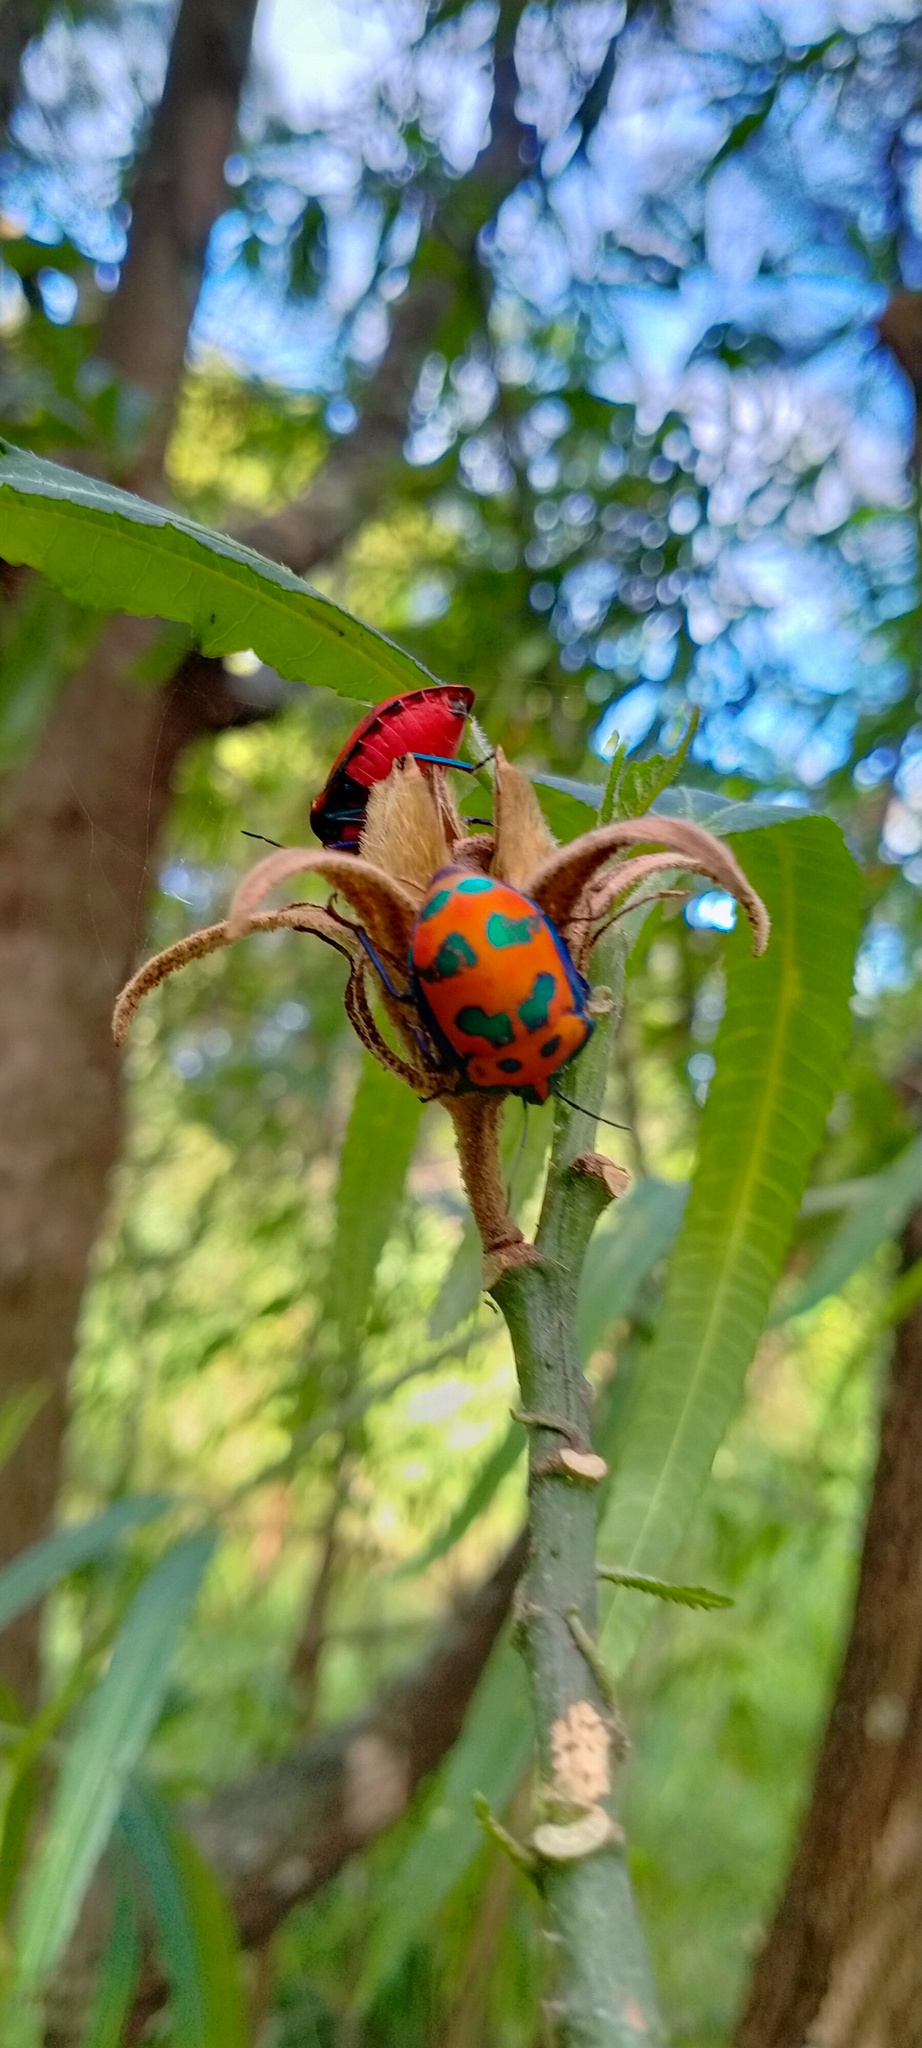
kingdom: Animalia
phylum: Arthropoda
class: Insecta
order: Hemiptera
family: Scutelleridae
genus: Tectocoris
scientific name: Tectocoris diophthalmus
